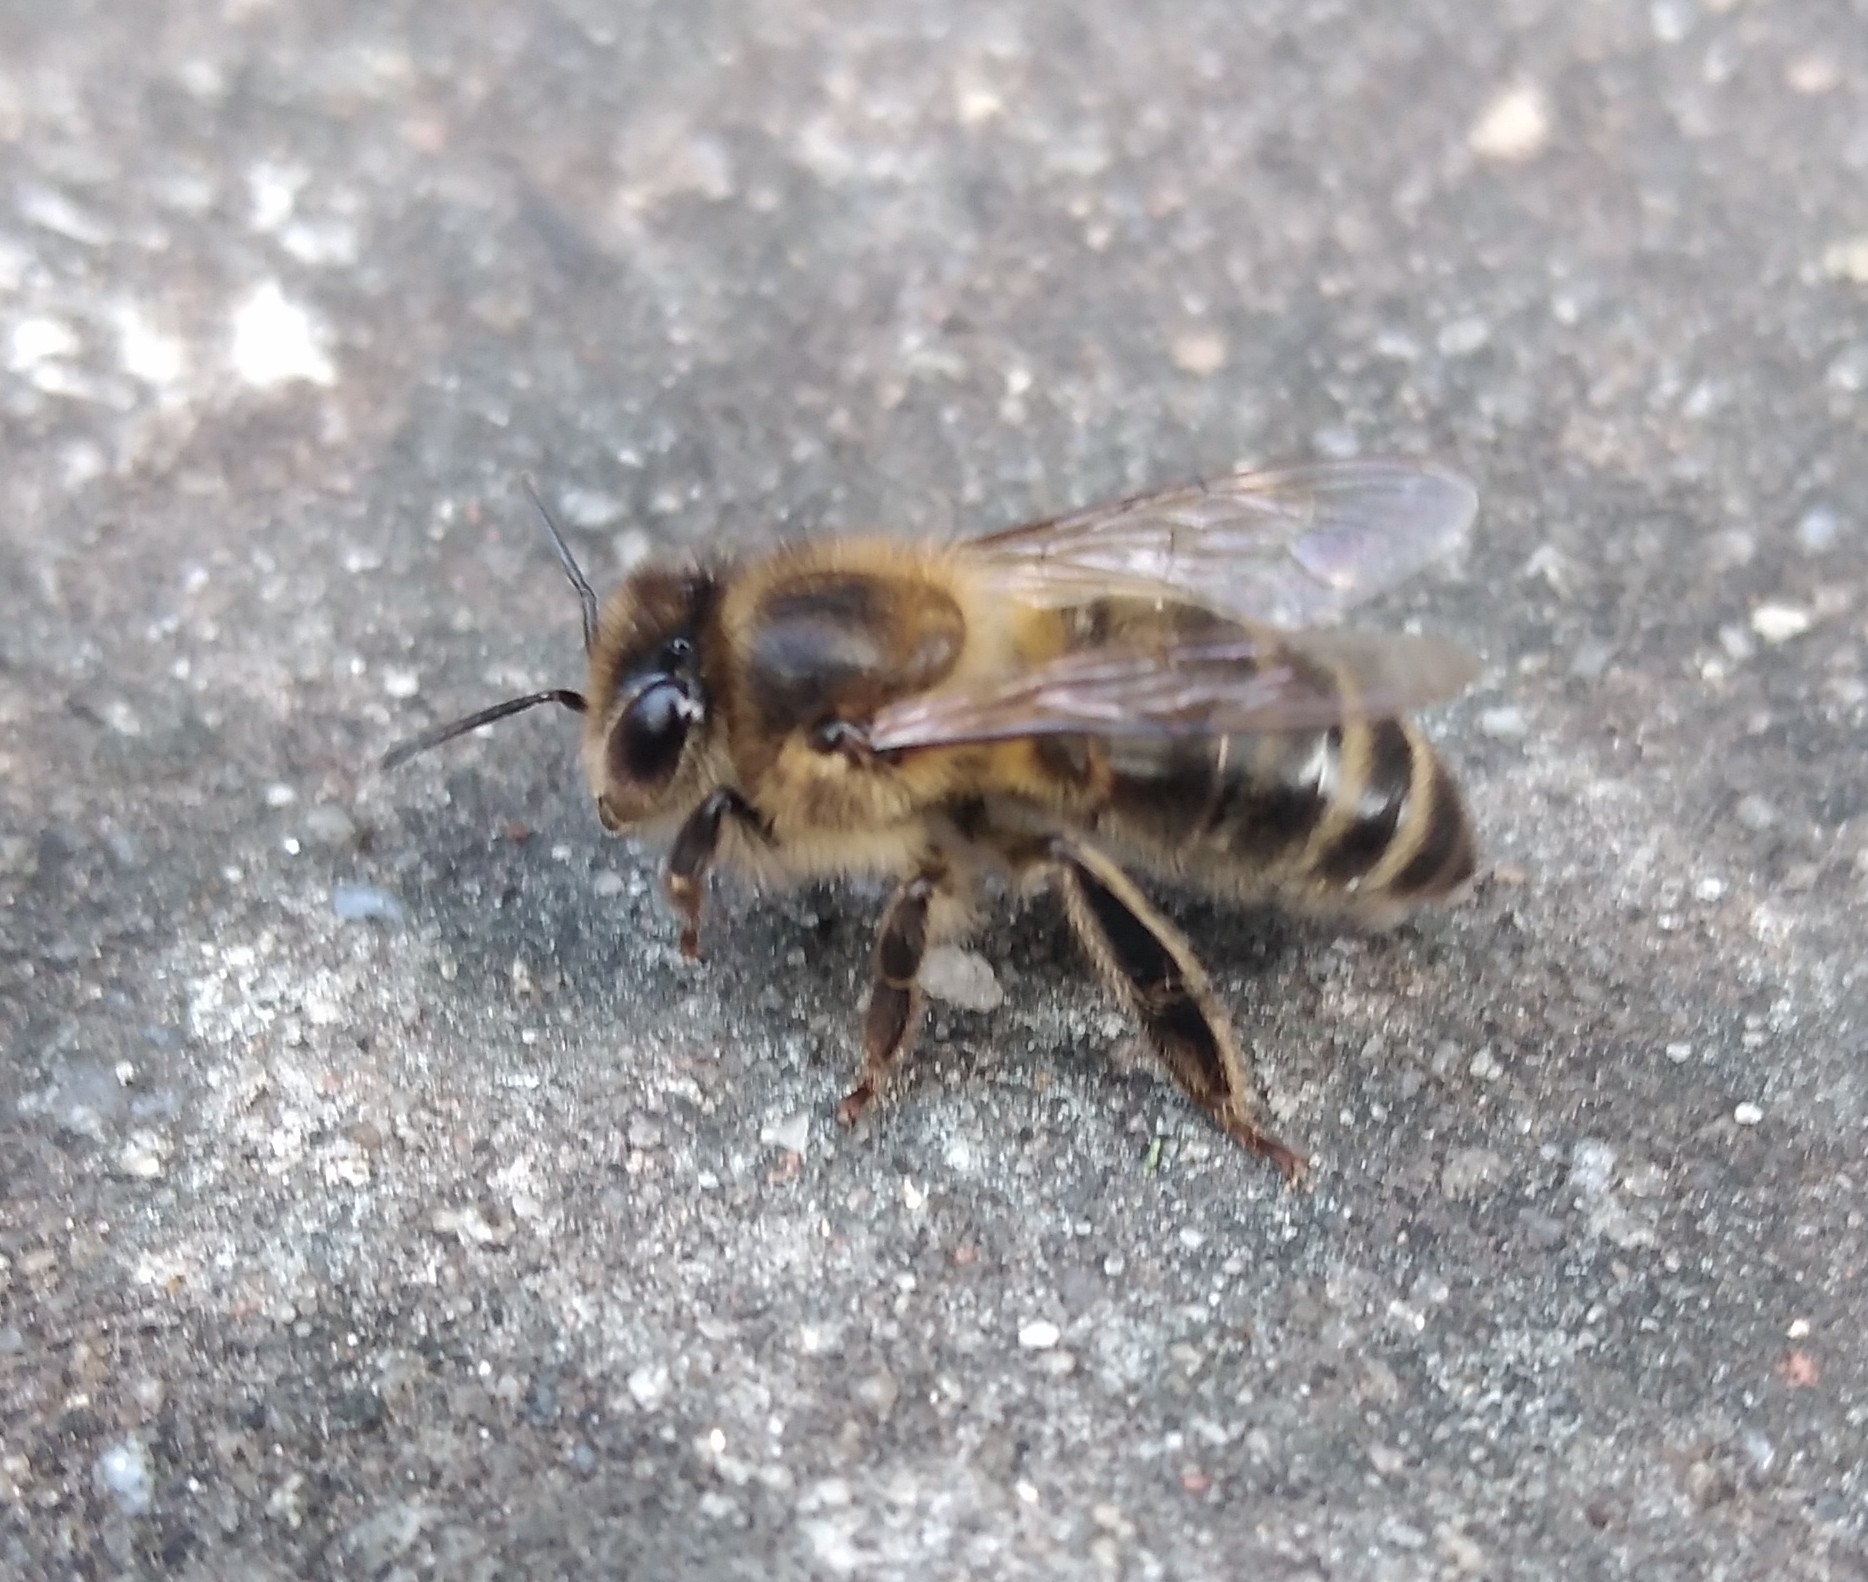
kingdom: Animalia
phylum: Arthropoda
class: Insecta
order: Hymenoptera
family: Apidae
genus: Apis
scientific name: Apis mellifera
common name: Honey bee
